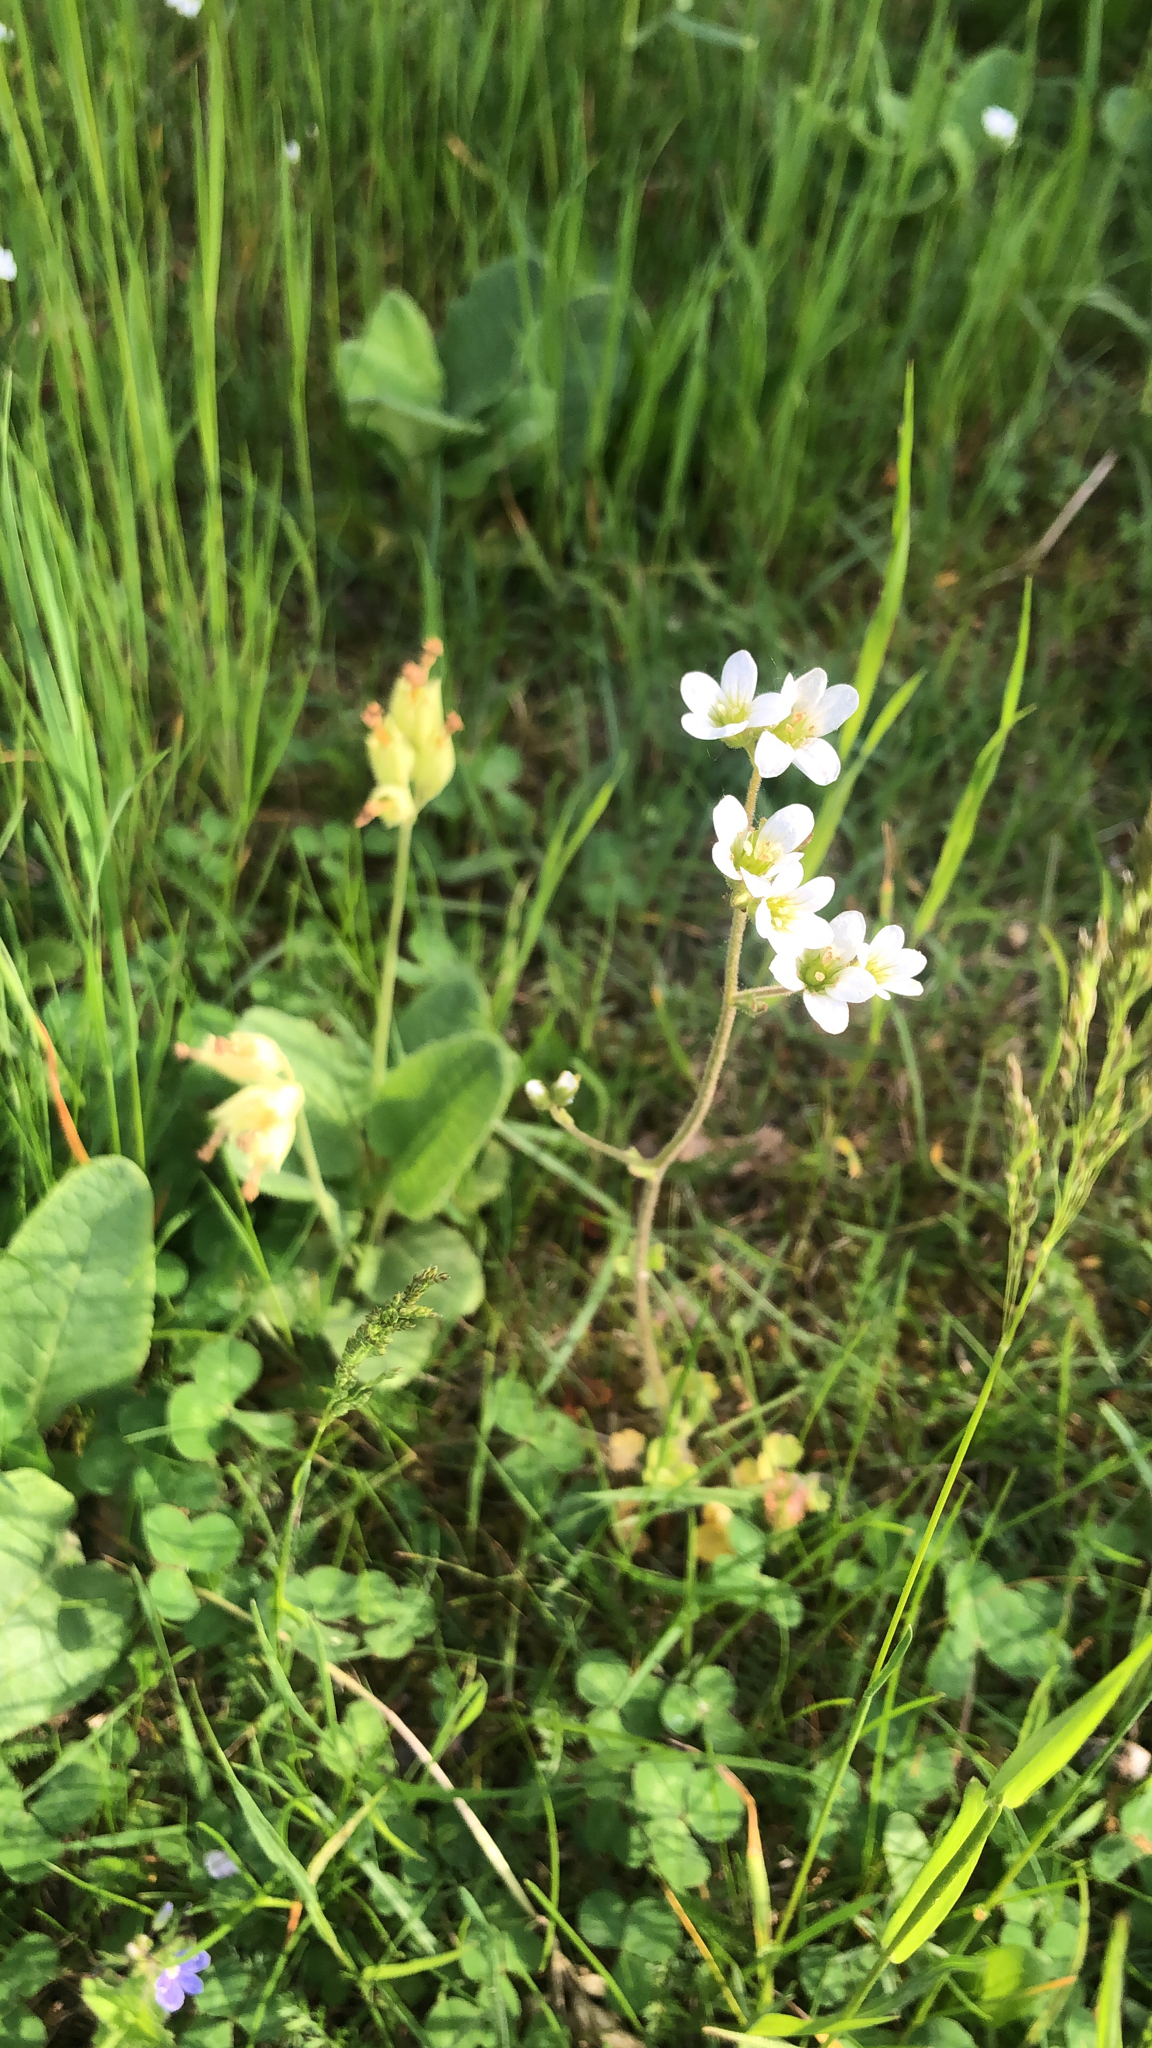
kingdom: Plantae
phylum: Tracheophyta
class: Magnoliopsida
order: Saxifragales
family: Saxifragaceae
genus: Saxifraga
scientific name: Saxifraga granulata
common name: Meadow saxifrage
